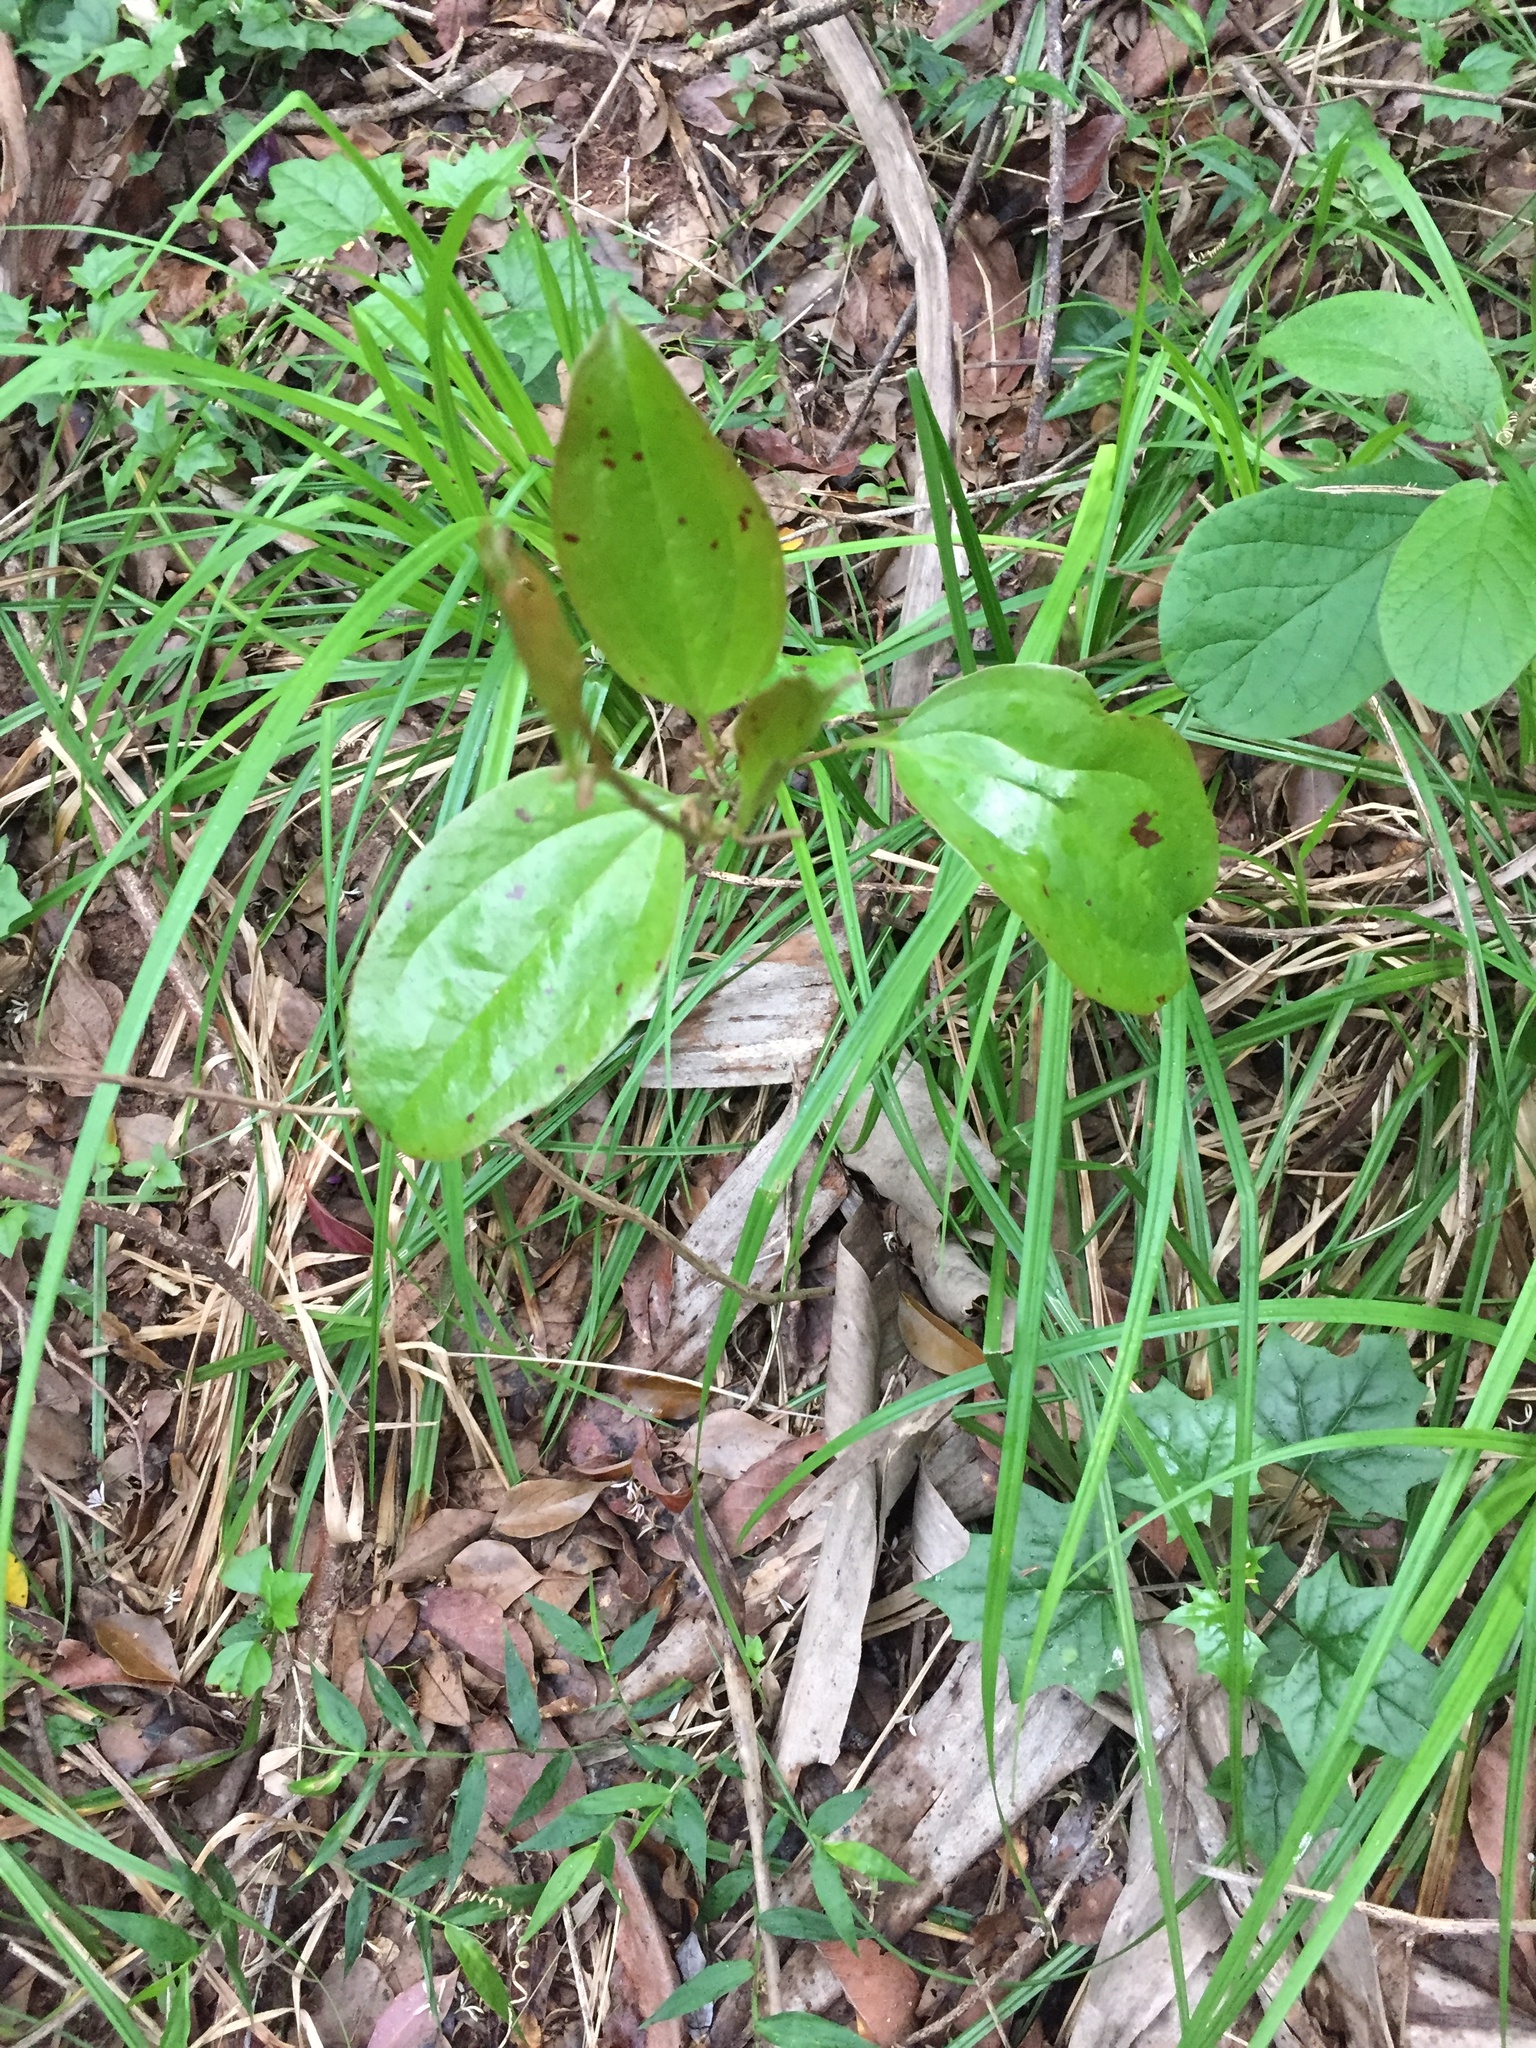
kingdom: Plantae
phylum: Tracheophyta
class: Liliopsida
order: Liliales
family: Smilacaceae
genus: Smilax
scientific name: Smilax anceps
